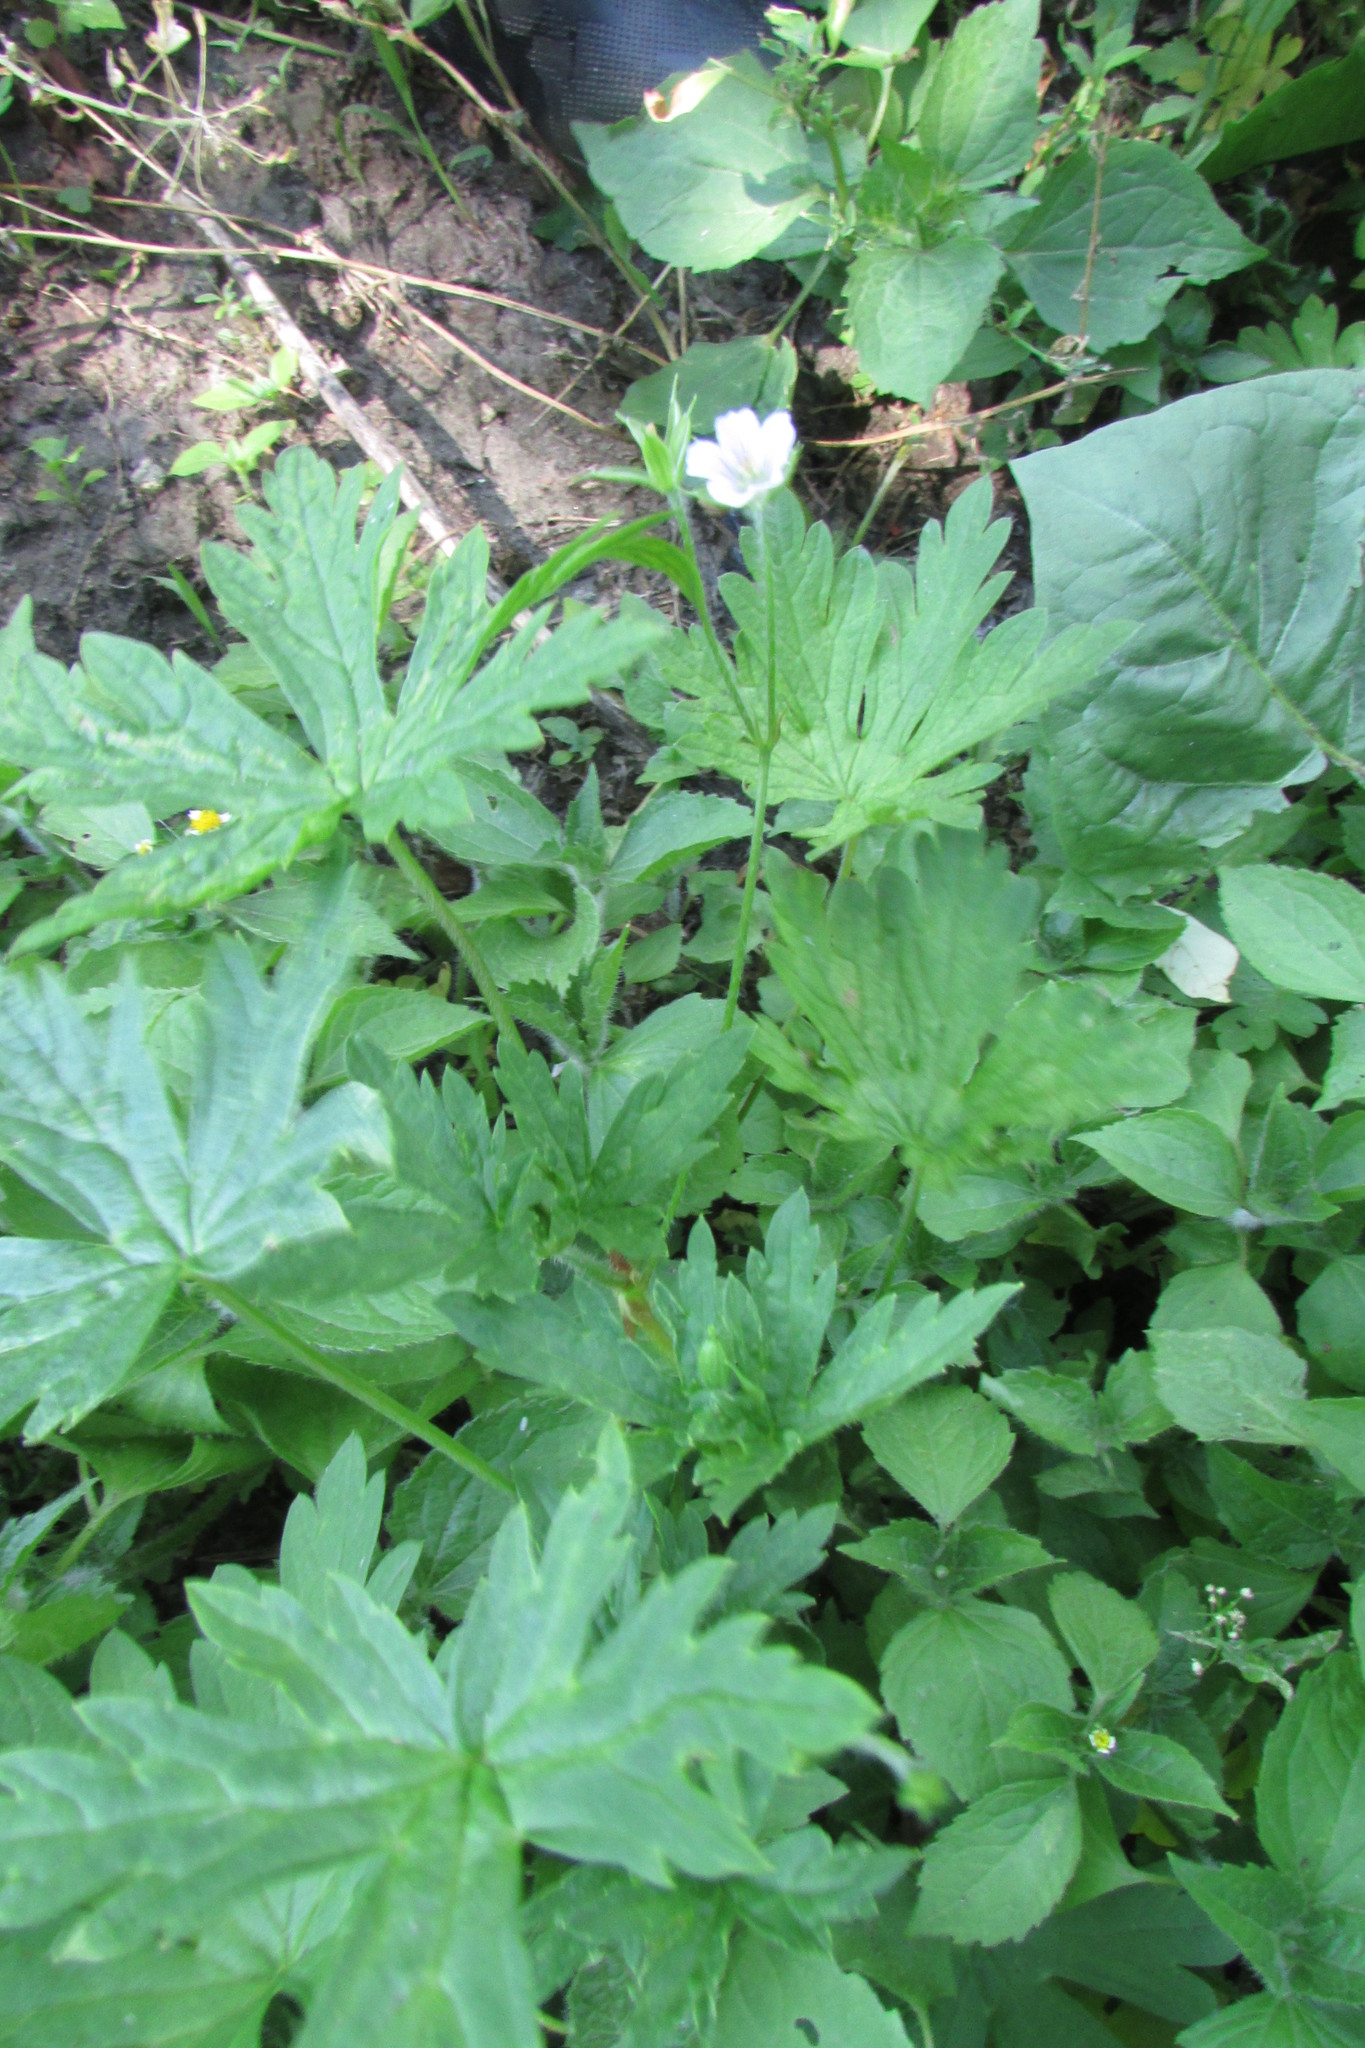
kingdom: Plantae
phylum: Tracheophyta
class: Magnoliopsida
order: Geraniales
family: Geraniaceae
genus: Geranium
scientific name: Geranium sibiricum
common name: Siberian crane's-bill
